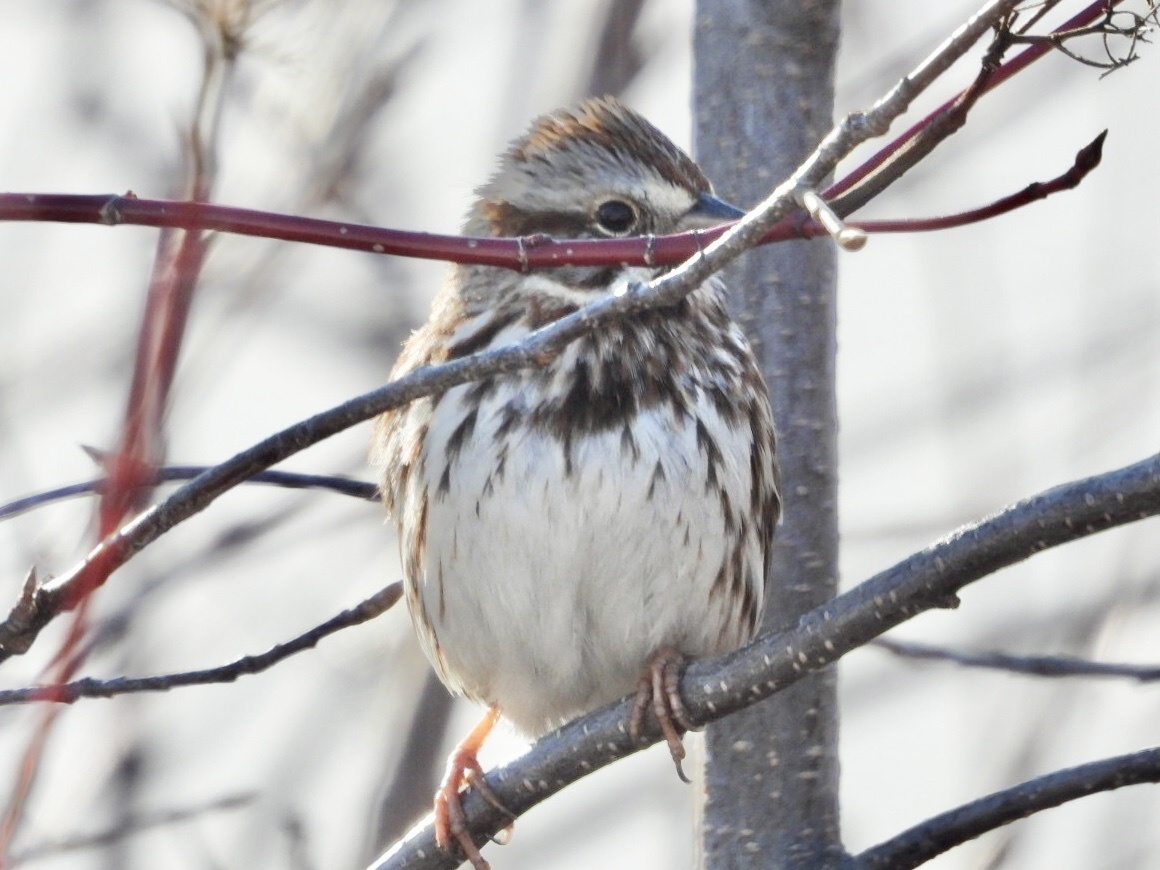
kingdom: Animalia
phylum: Chordata
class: Aves
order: Passeriformes
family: Passerellidae
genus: Melospiza
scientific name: Melospiza melodia
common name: Song sparrow
